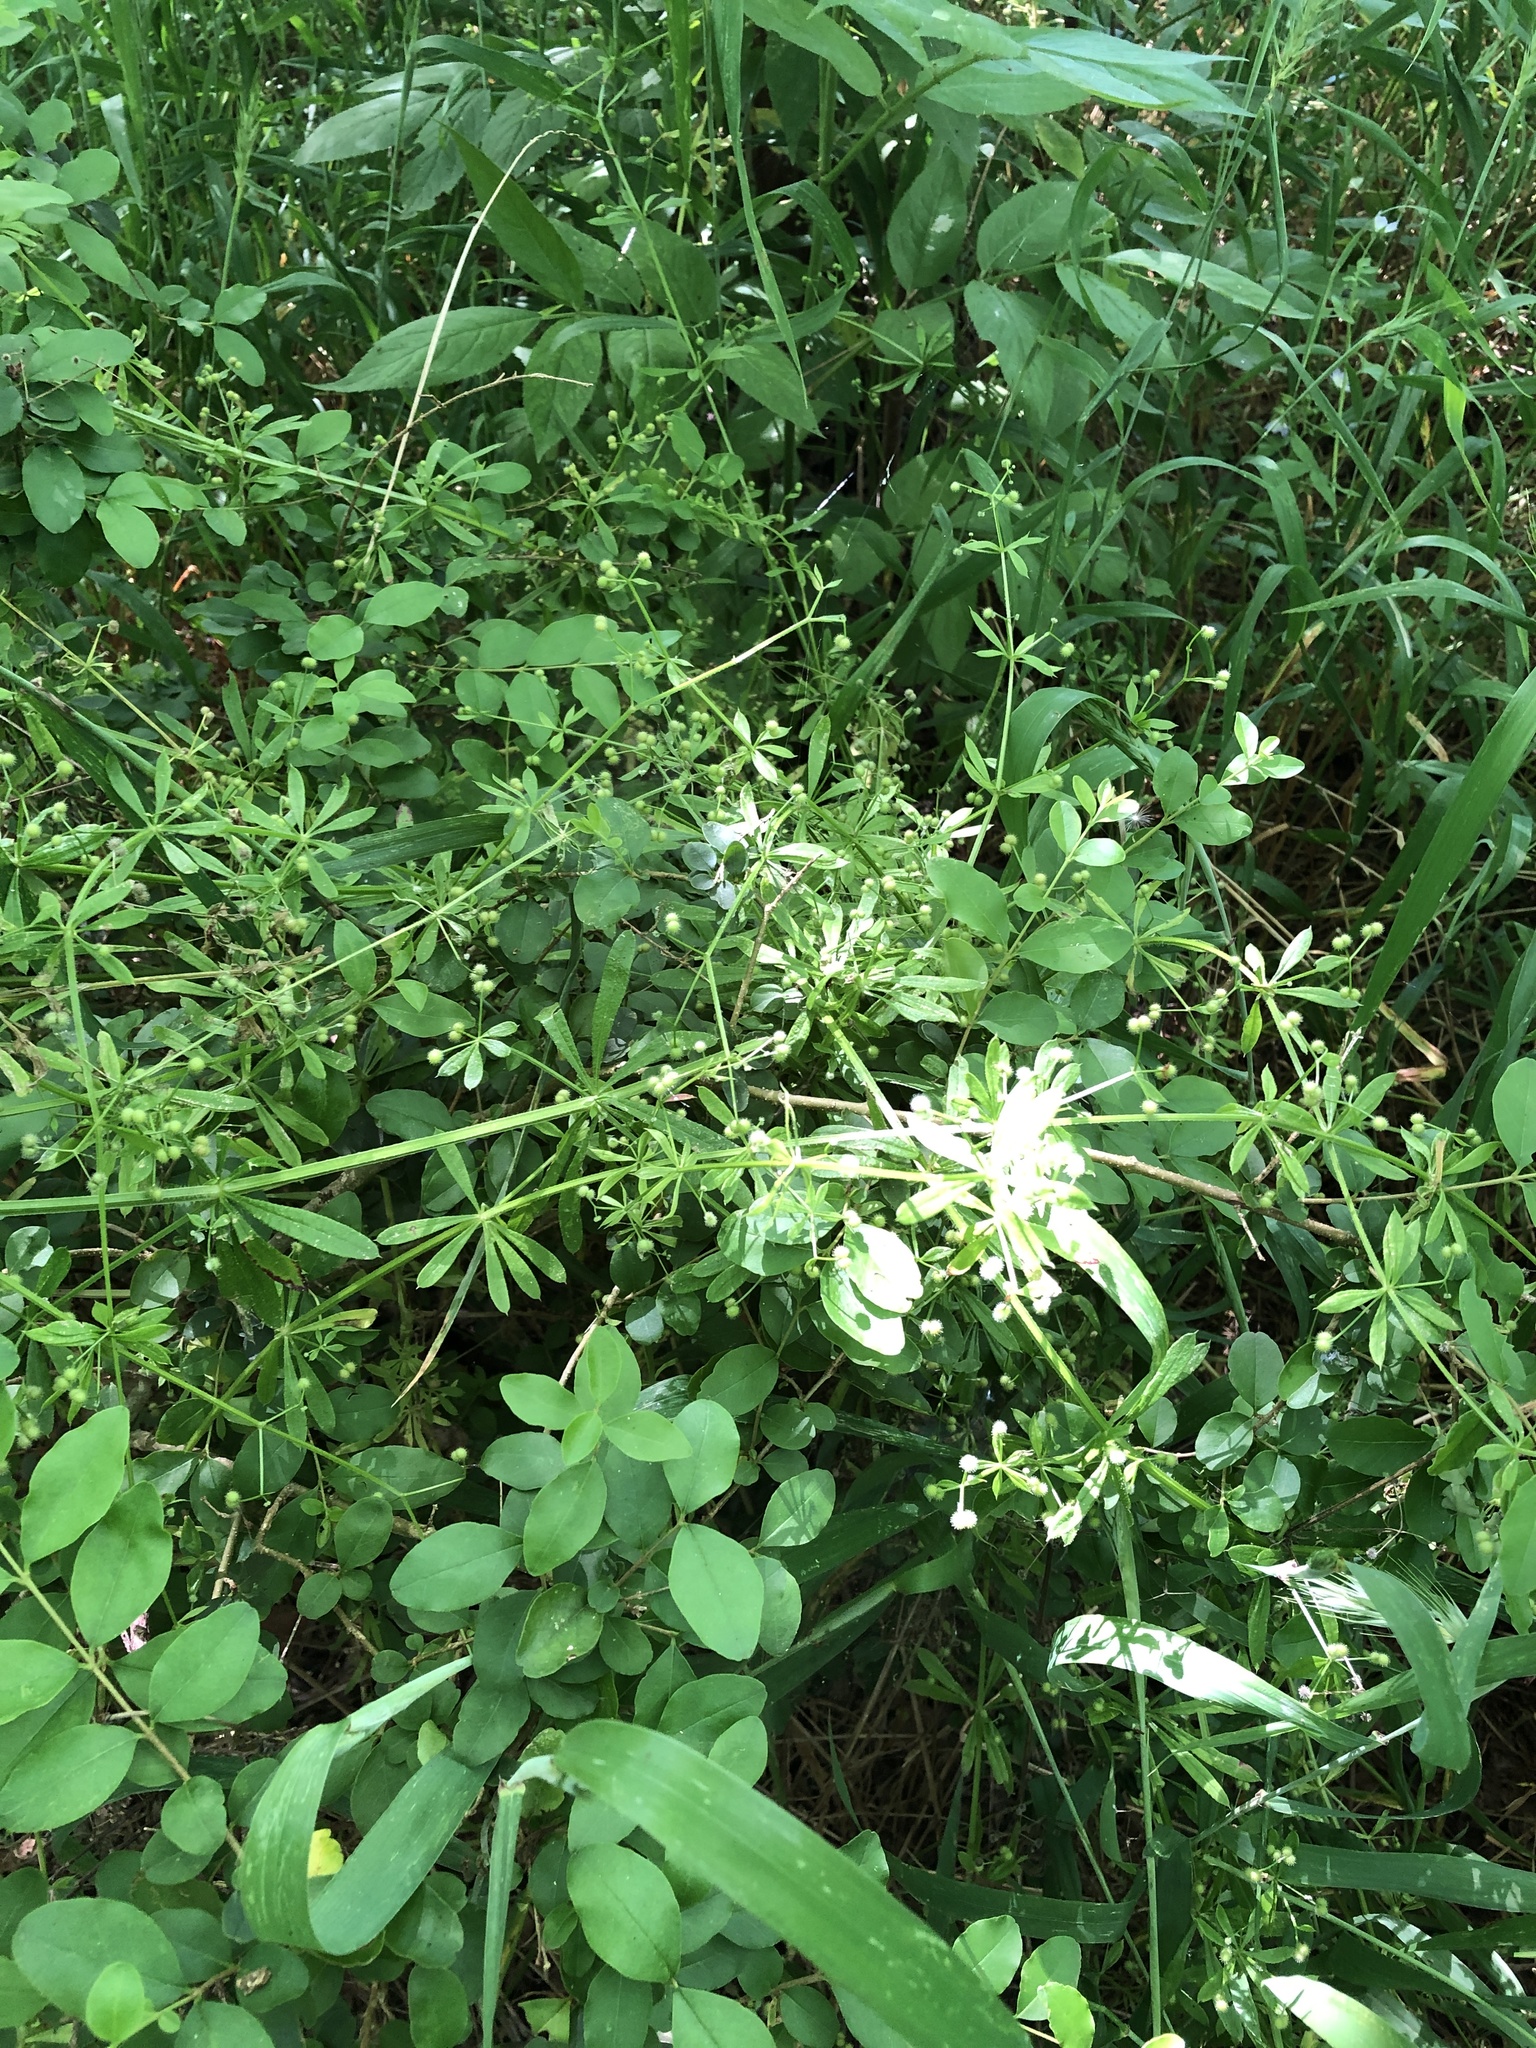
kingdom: Plantae
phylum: Tracheophyta
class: Magnoliopsida
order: Gentianales
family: Rubiaceae
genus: Galium
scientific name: Galium aparine
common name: Cleavers
